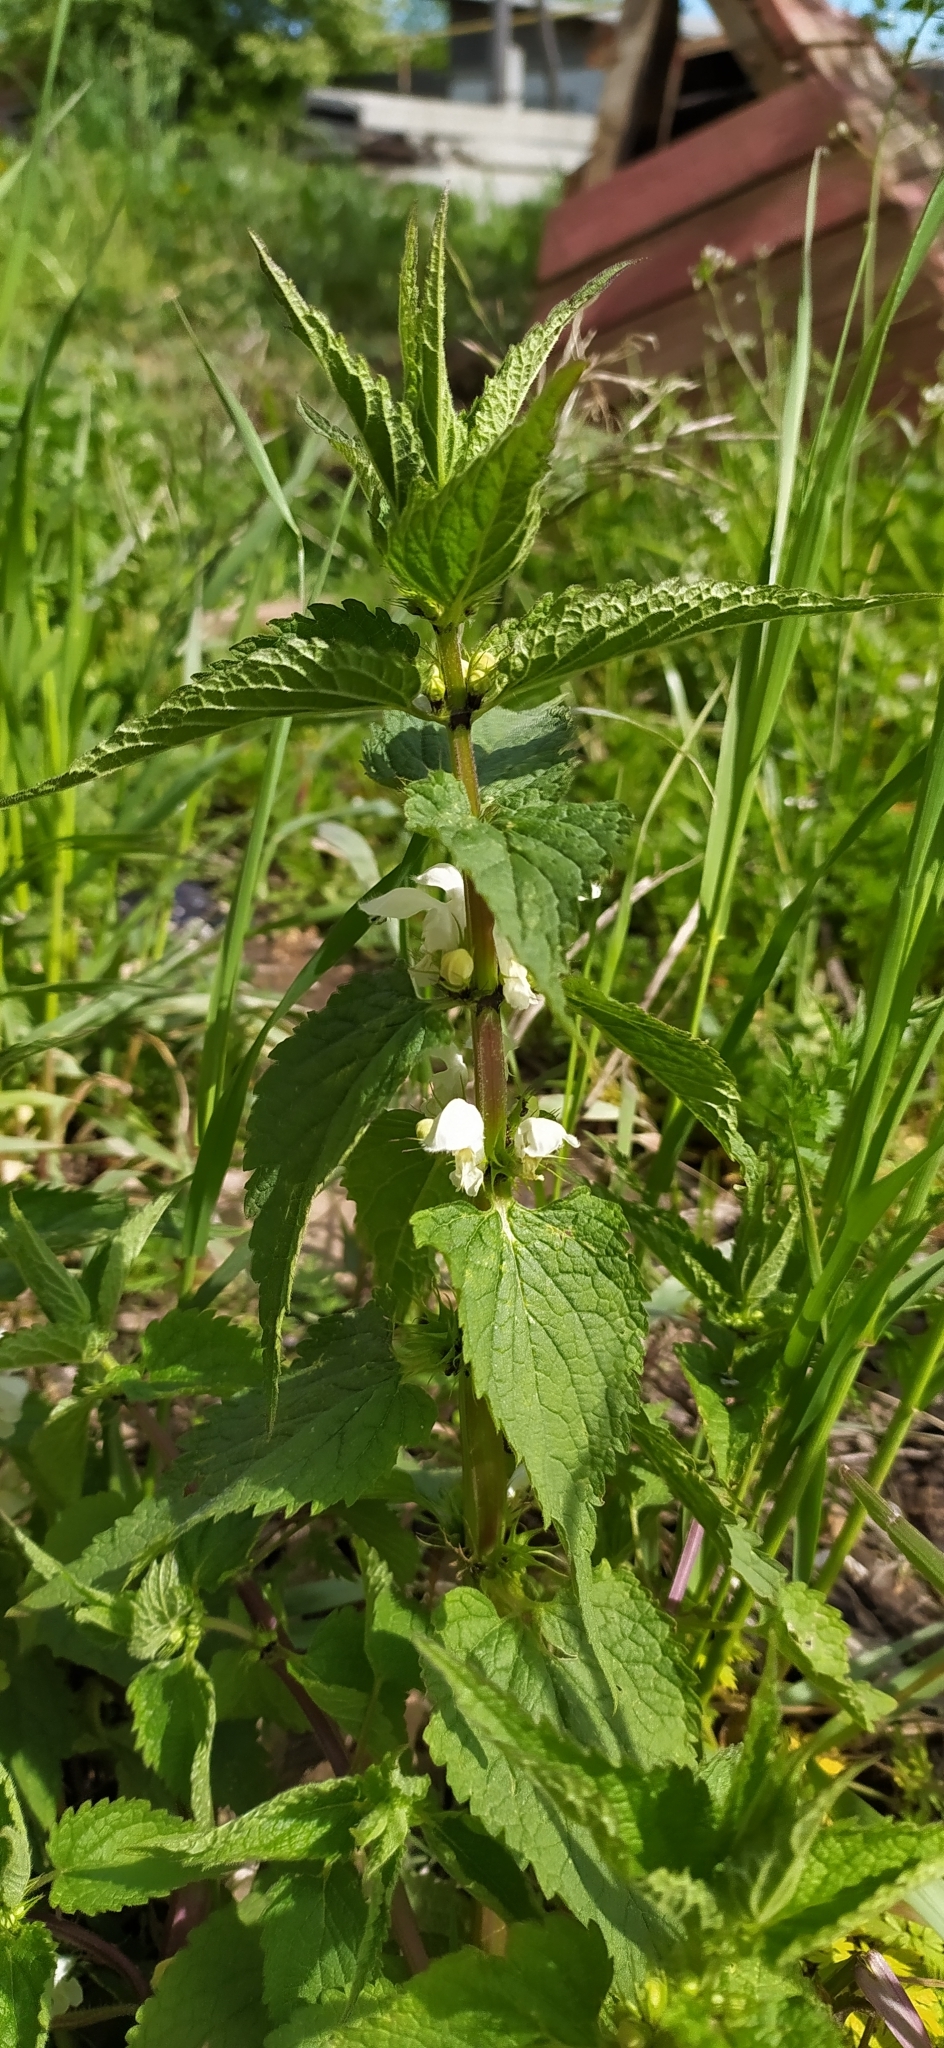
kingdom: Plantae
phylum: Tracheophyta
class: Magnoliopsida
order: Lamiales
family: Lamiaceae
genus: Lamium
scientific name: Lamium album
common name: White dead-nettle
